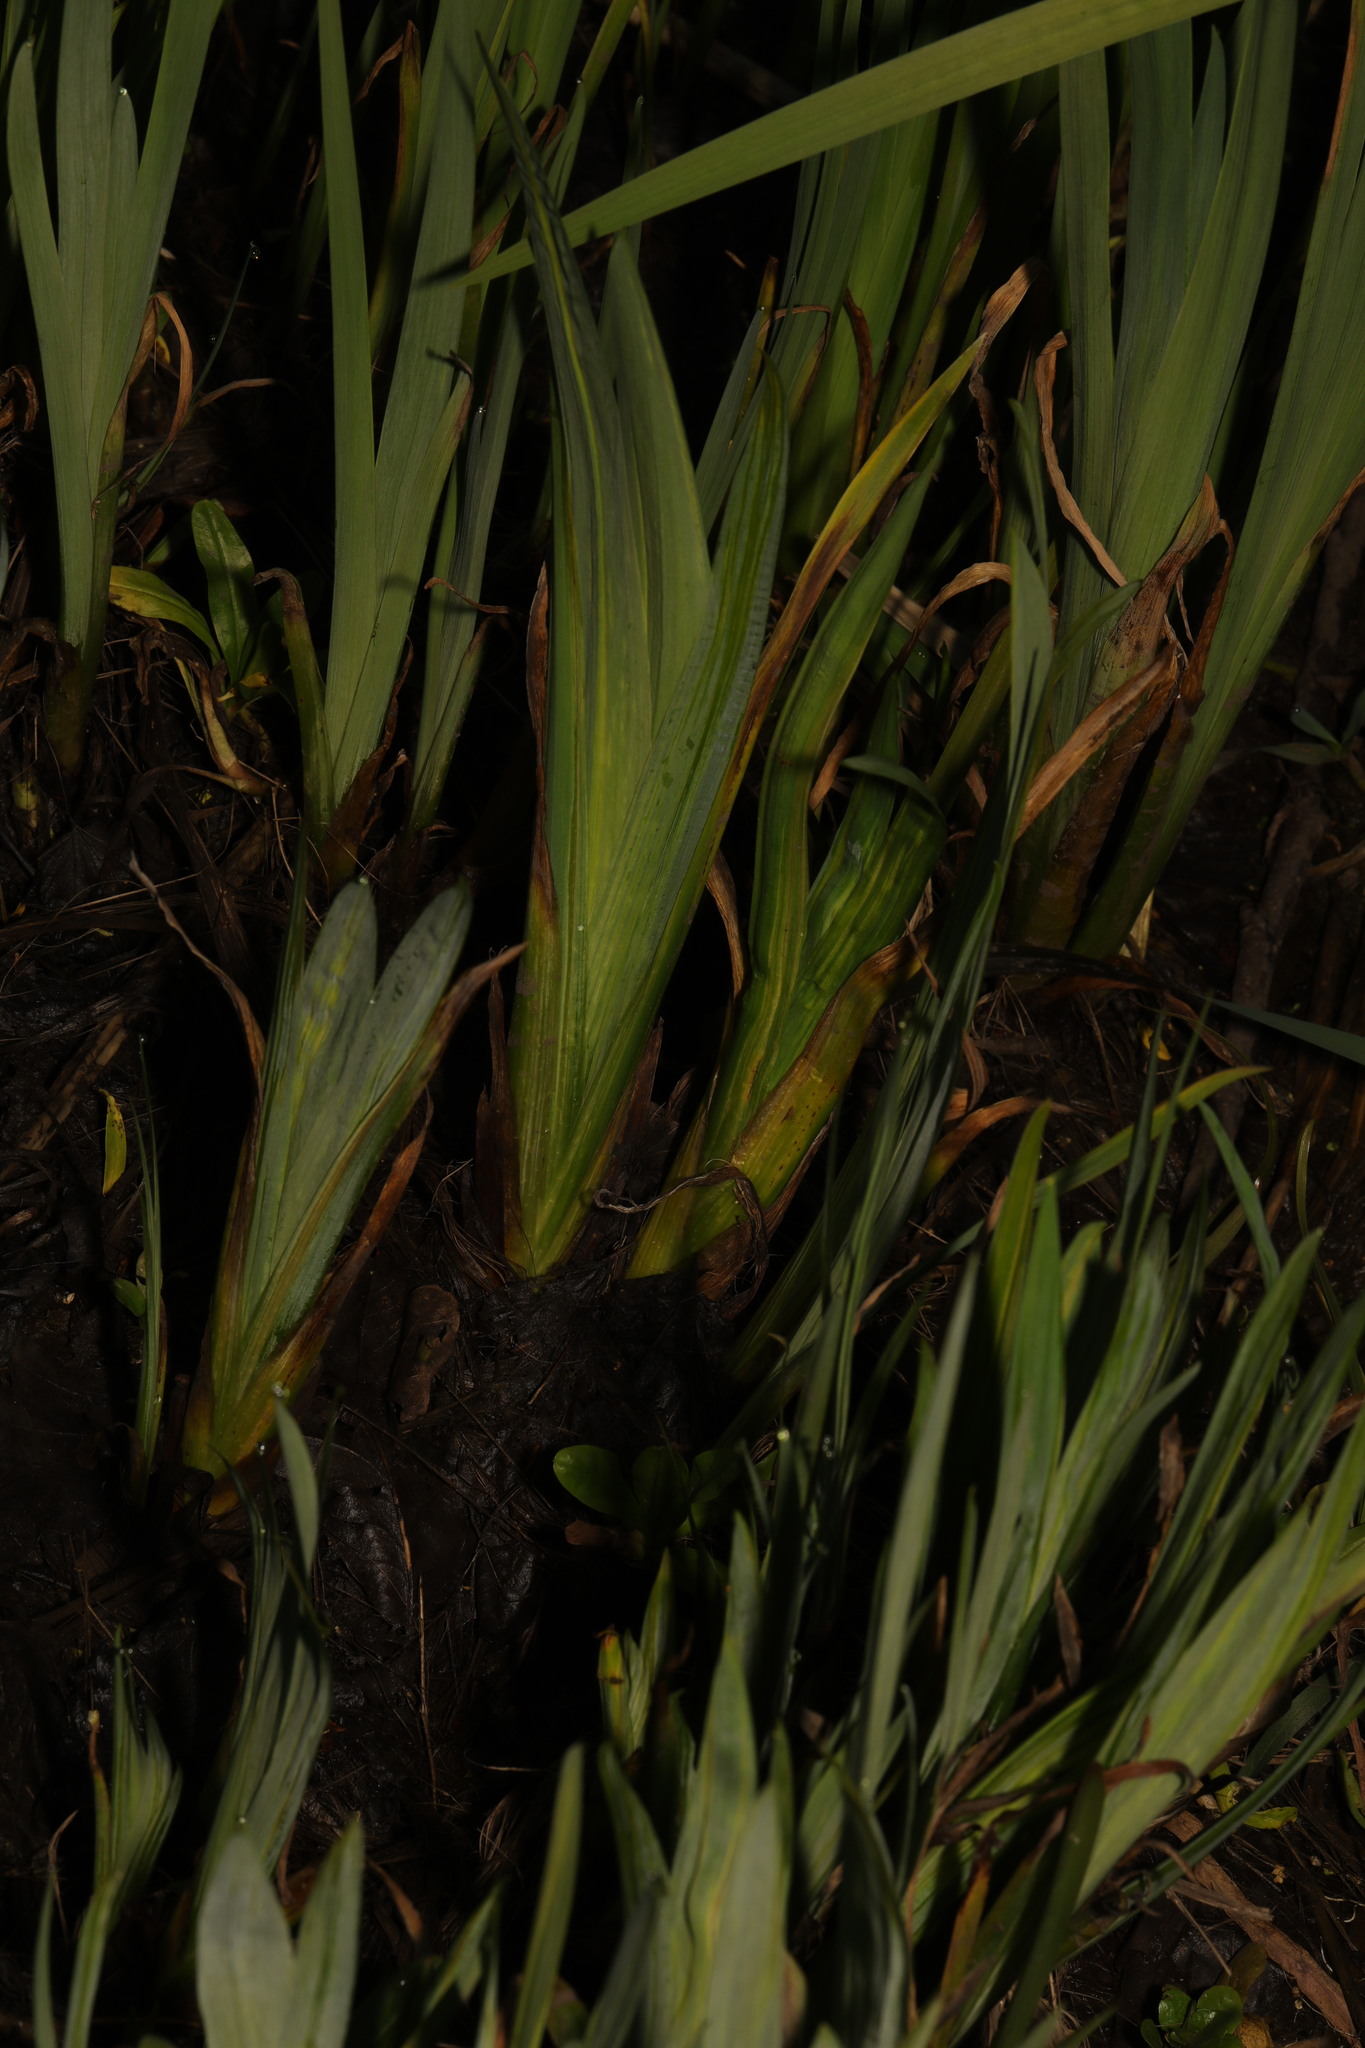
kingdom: Plantae
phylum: Tracheophyta
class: Liliopsida
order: Asparagales
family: Iridaceae
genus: Iris
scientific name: Iris pseudacorus
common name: Yellow flag
